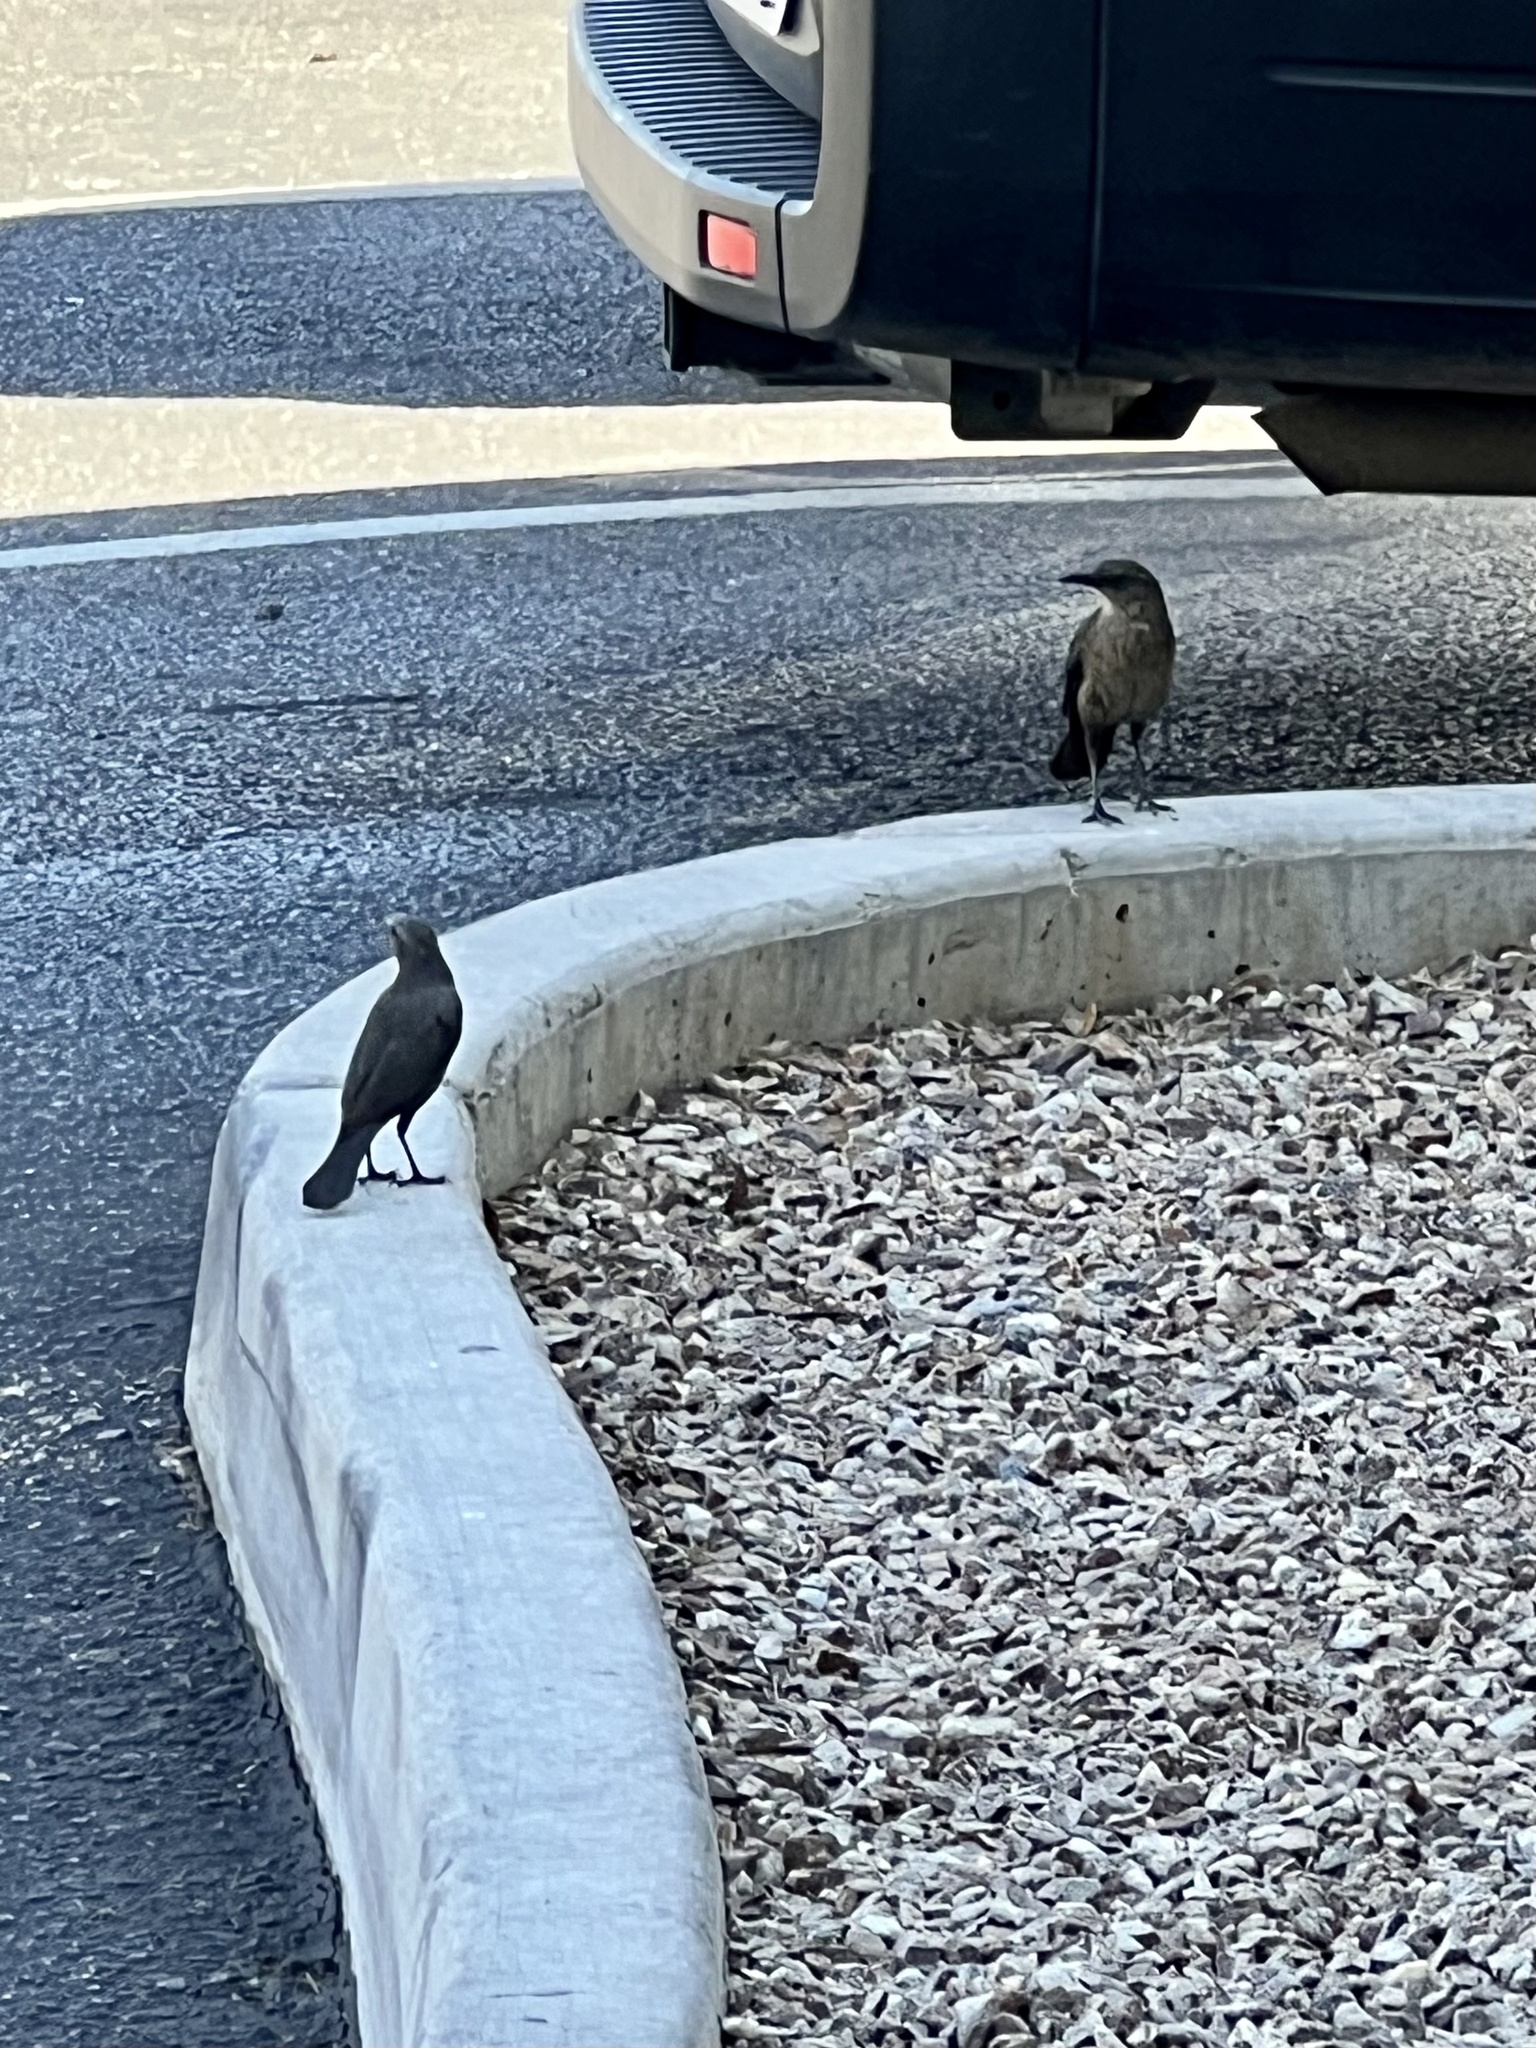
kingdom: Animalia
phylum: Chordata
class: Aves
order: Passeriformes
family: Icteridae
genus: Euphagus
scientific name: Euphagus cyanocephalus
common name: Brewer's blackbird
